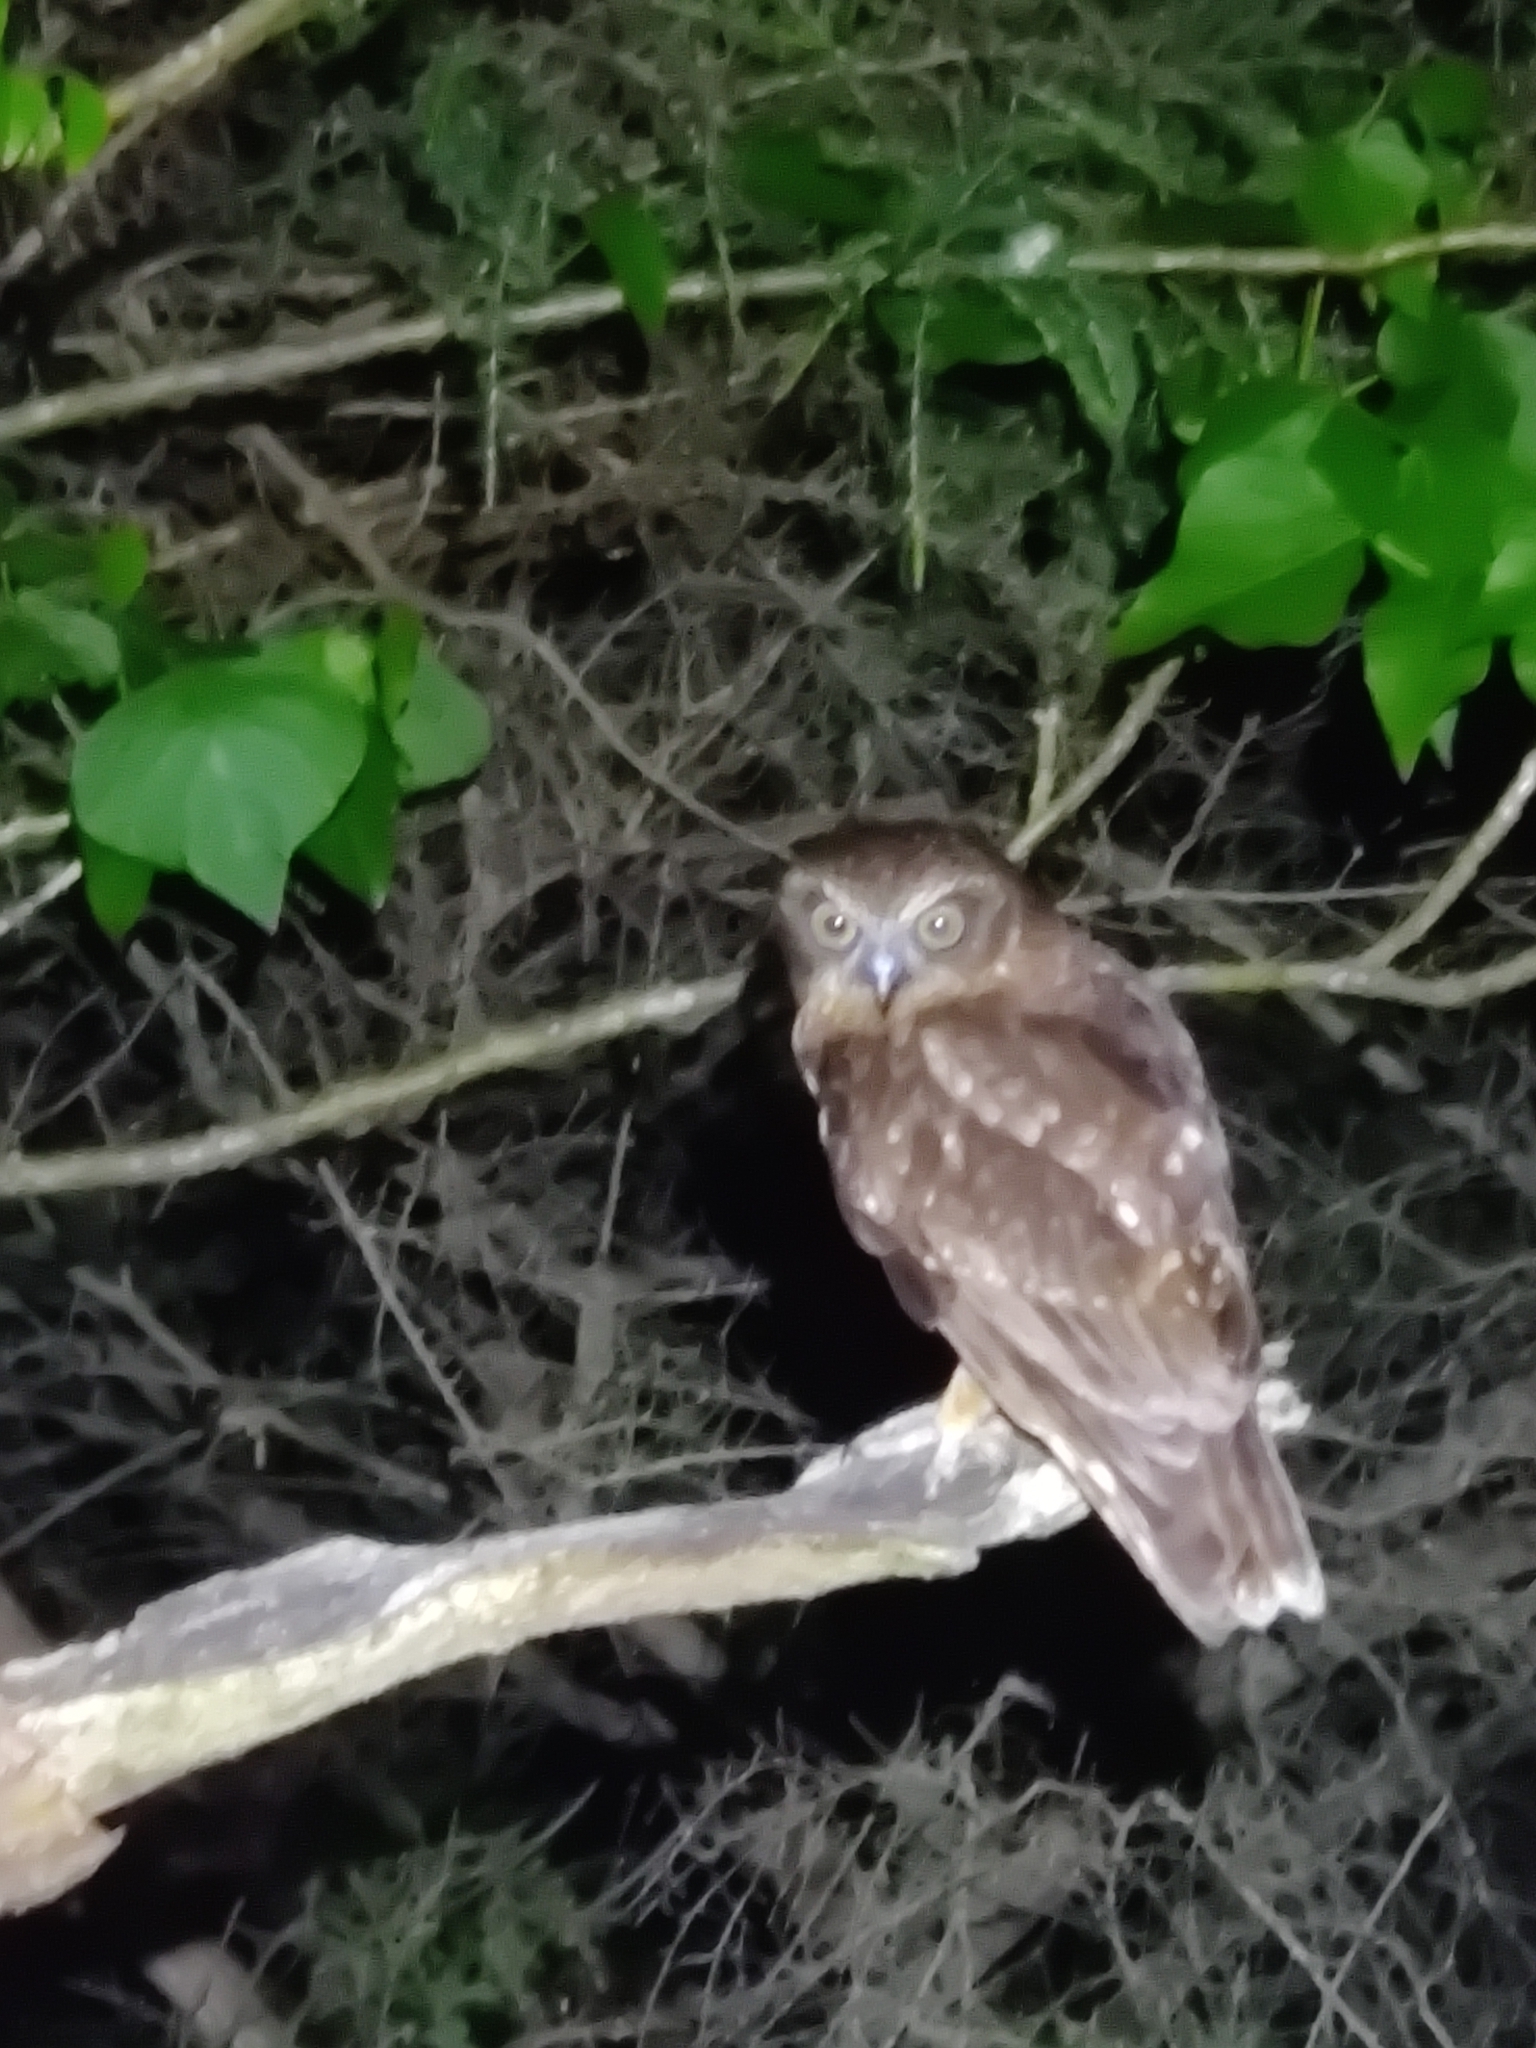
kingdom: Animalia
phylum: Chordata
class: Aves
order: Strigiformes
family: Strigidae
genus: Ninox
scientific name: Ninox boobook
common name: Southern boobook
